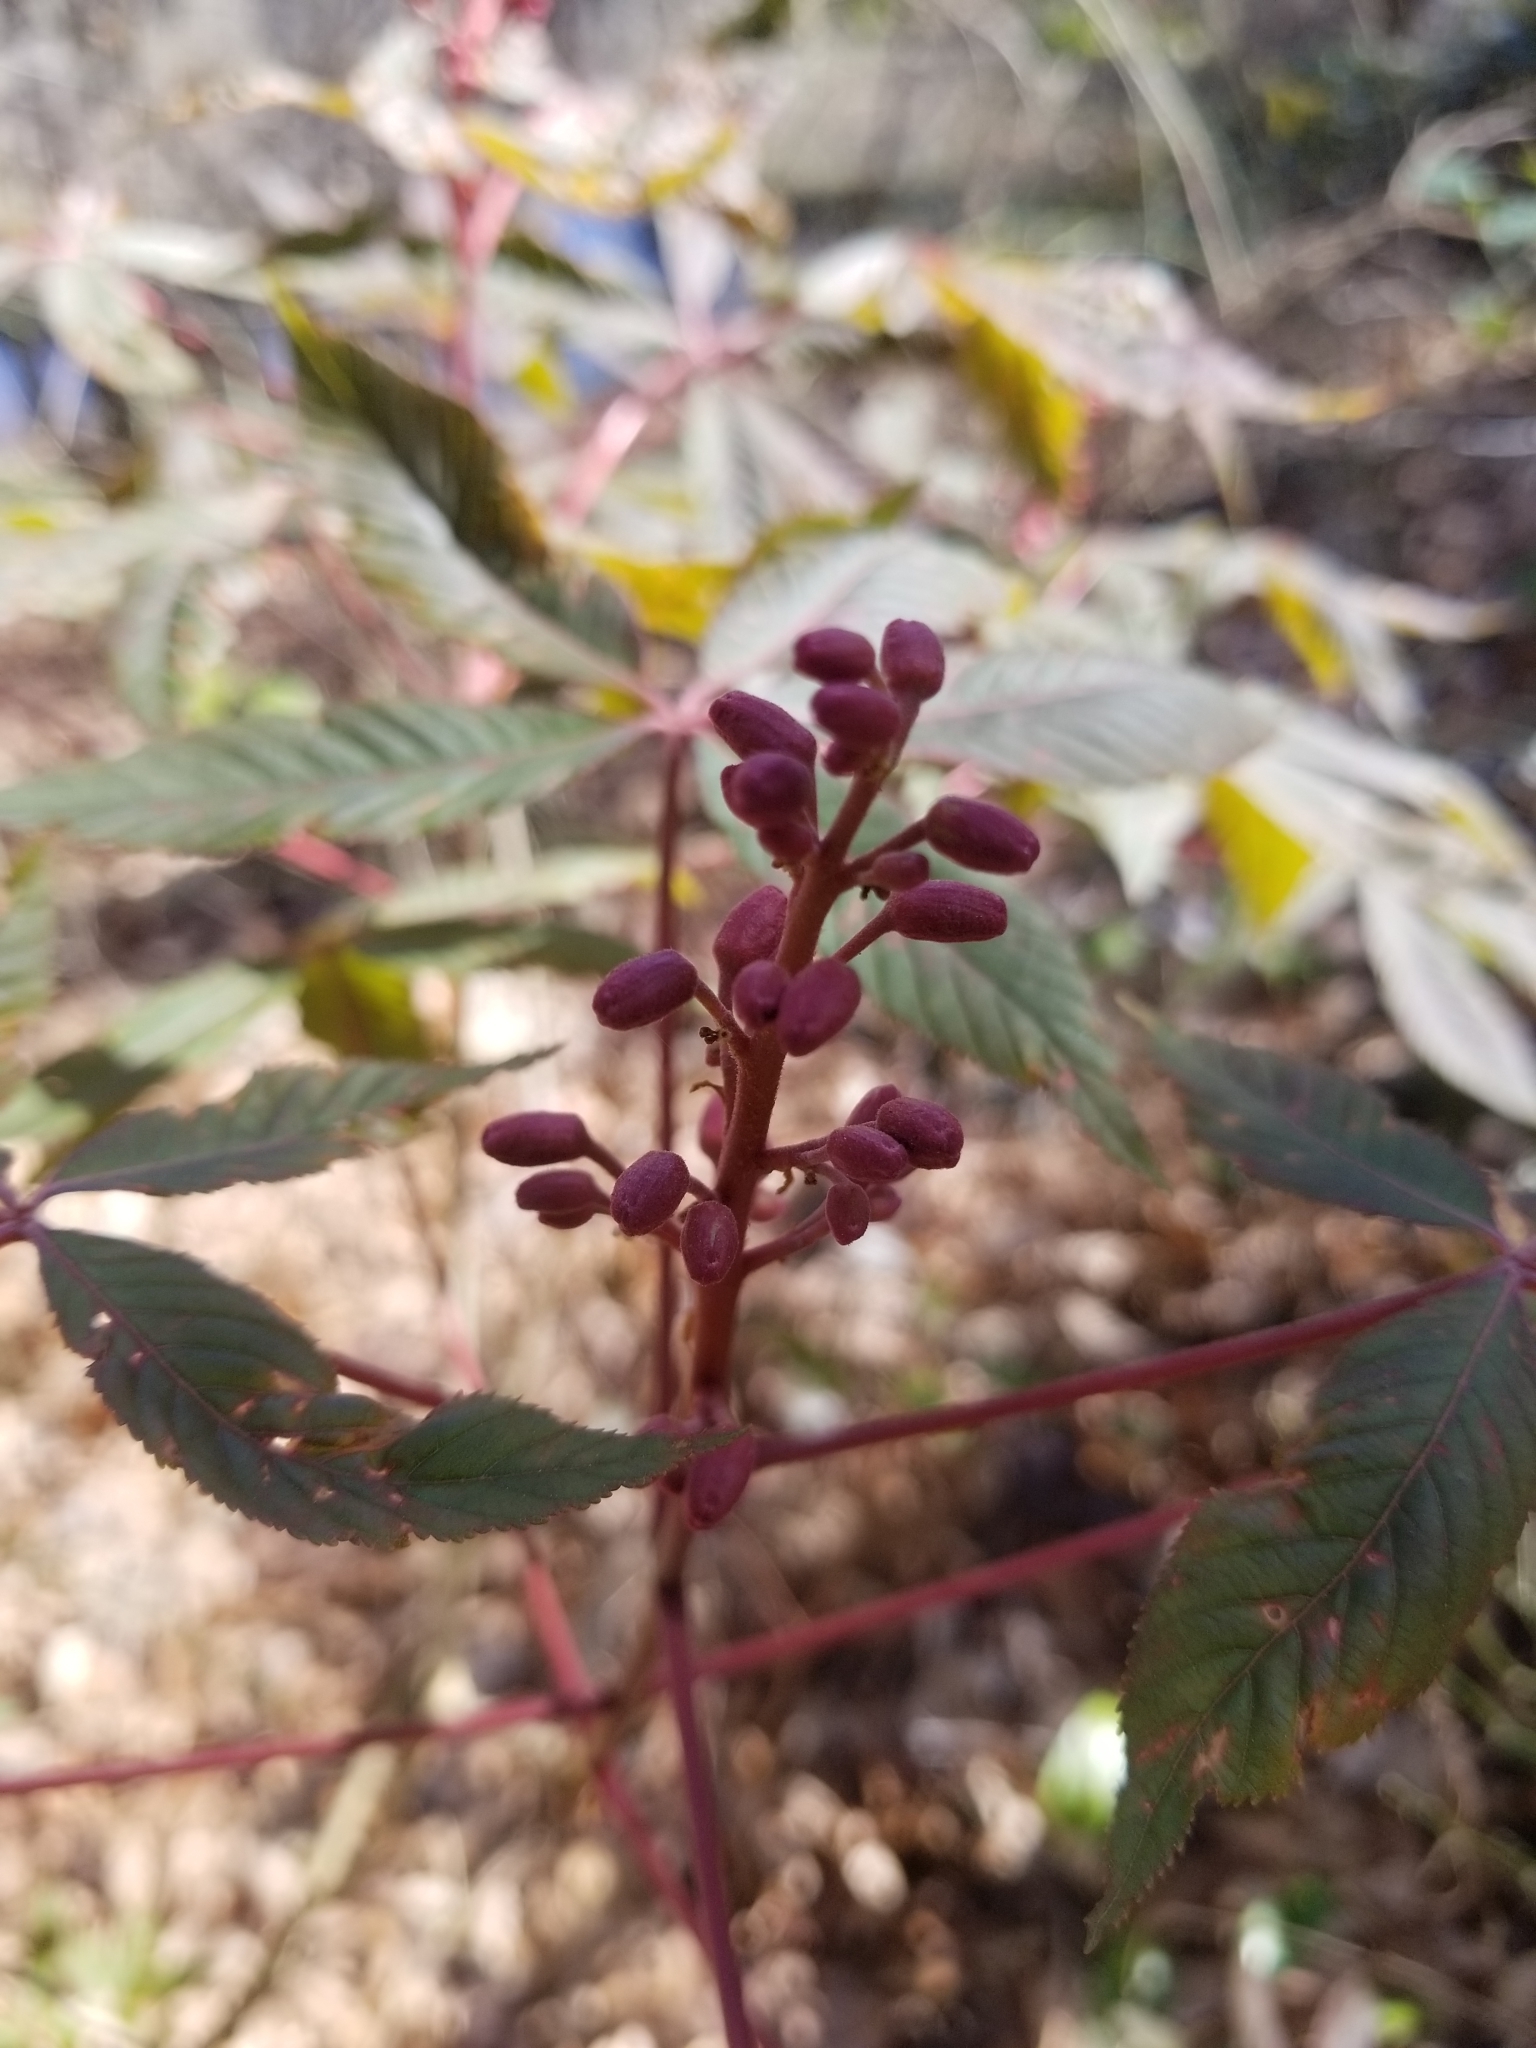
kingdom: Plantae
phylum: Tracheophyta
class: Magnoliopsida
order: Sapindales
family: Sapindaceae
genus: Aesculus
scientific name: Aesculus pavia
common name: Red buckeye
